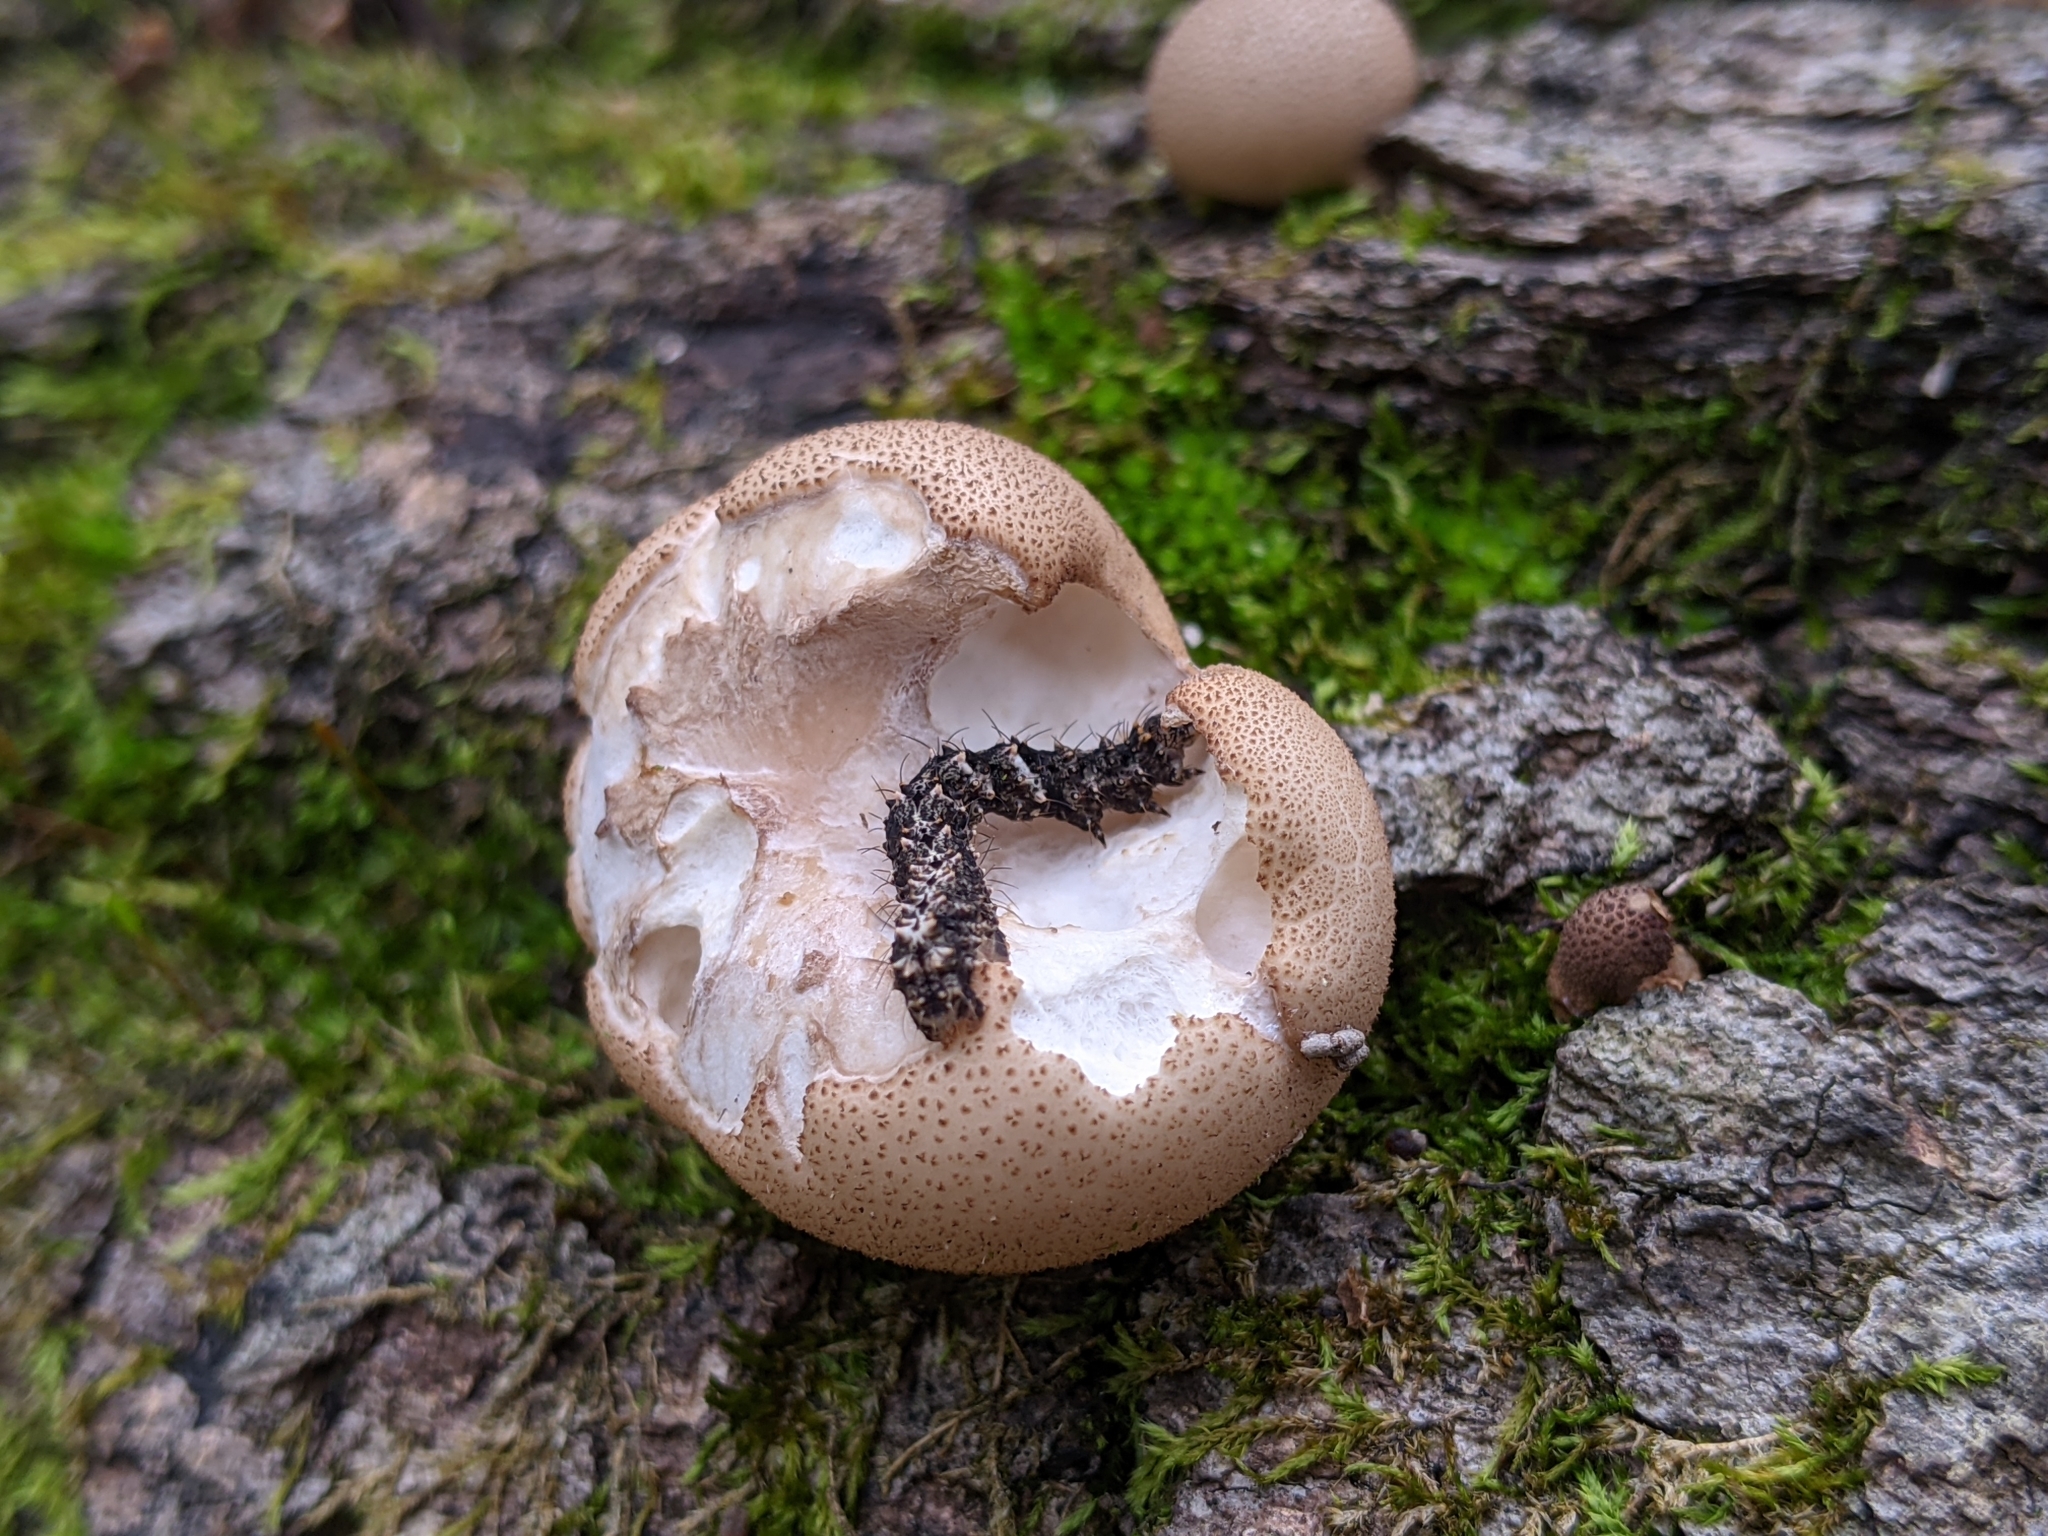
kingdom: Animalia
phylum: Arthropoda
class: Insecta
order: Lepidoptera
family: Erebidae
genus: Metalectra
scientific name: Metalectra discalis
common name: Common fungus moth
